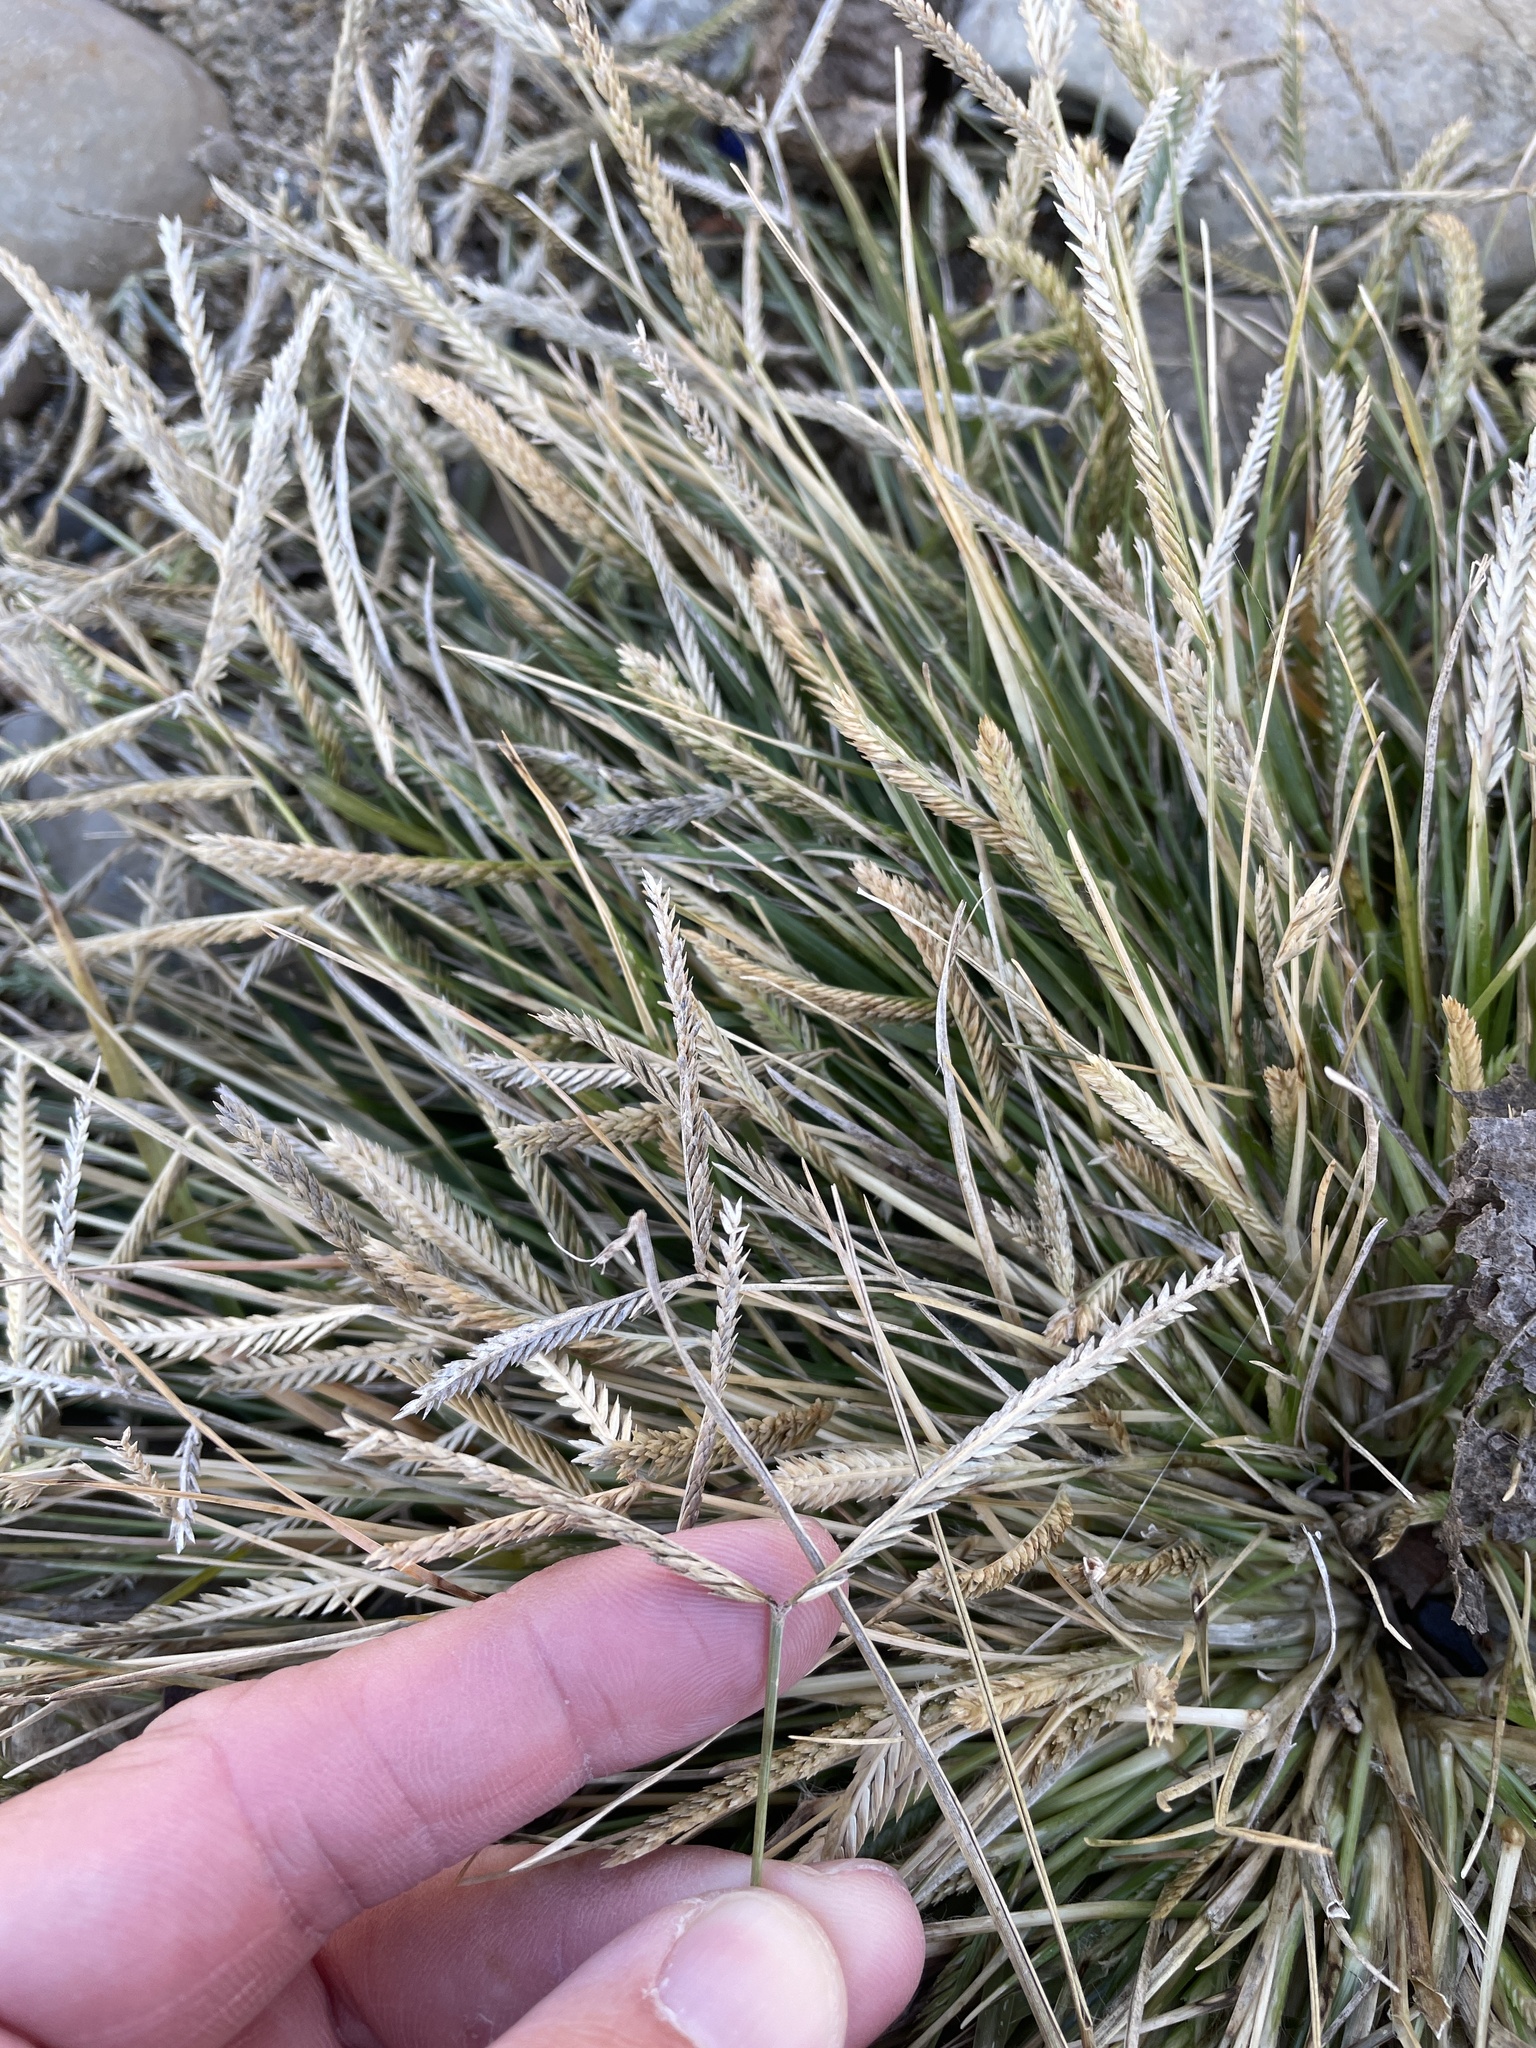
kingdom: Plantae
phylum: Tracheophyta
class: Liliopsida
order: Poales
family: Poaceae
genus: Eleusine
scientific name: Eleusine indica
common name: Yard-grass
